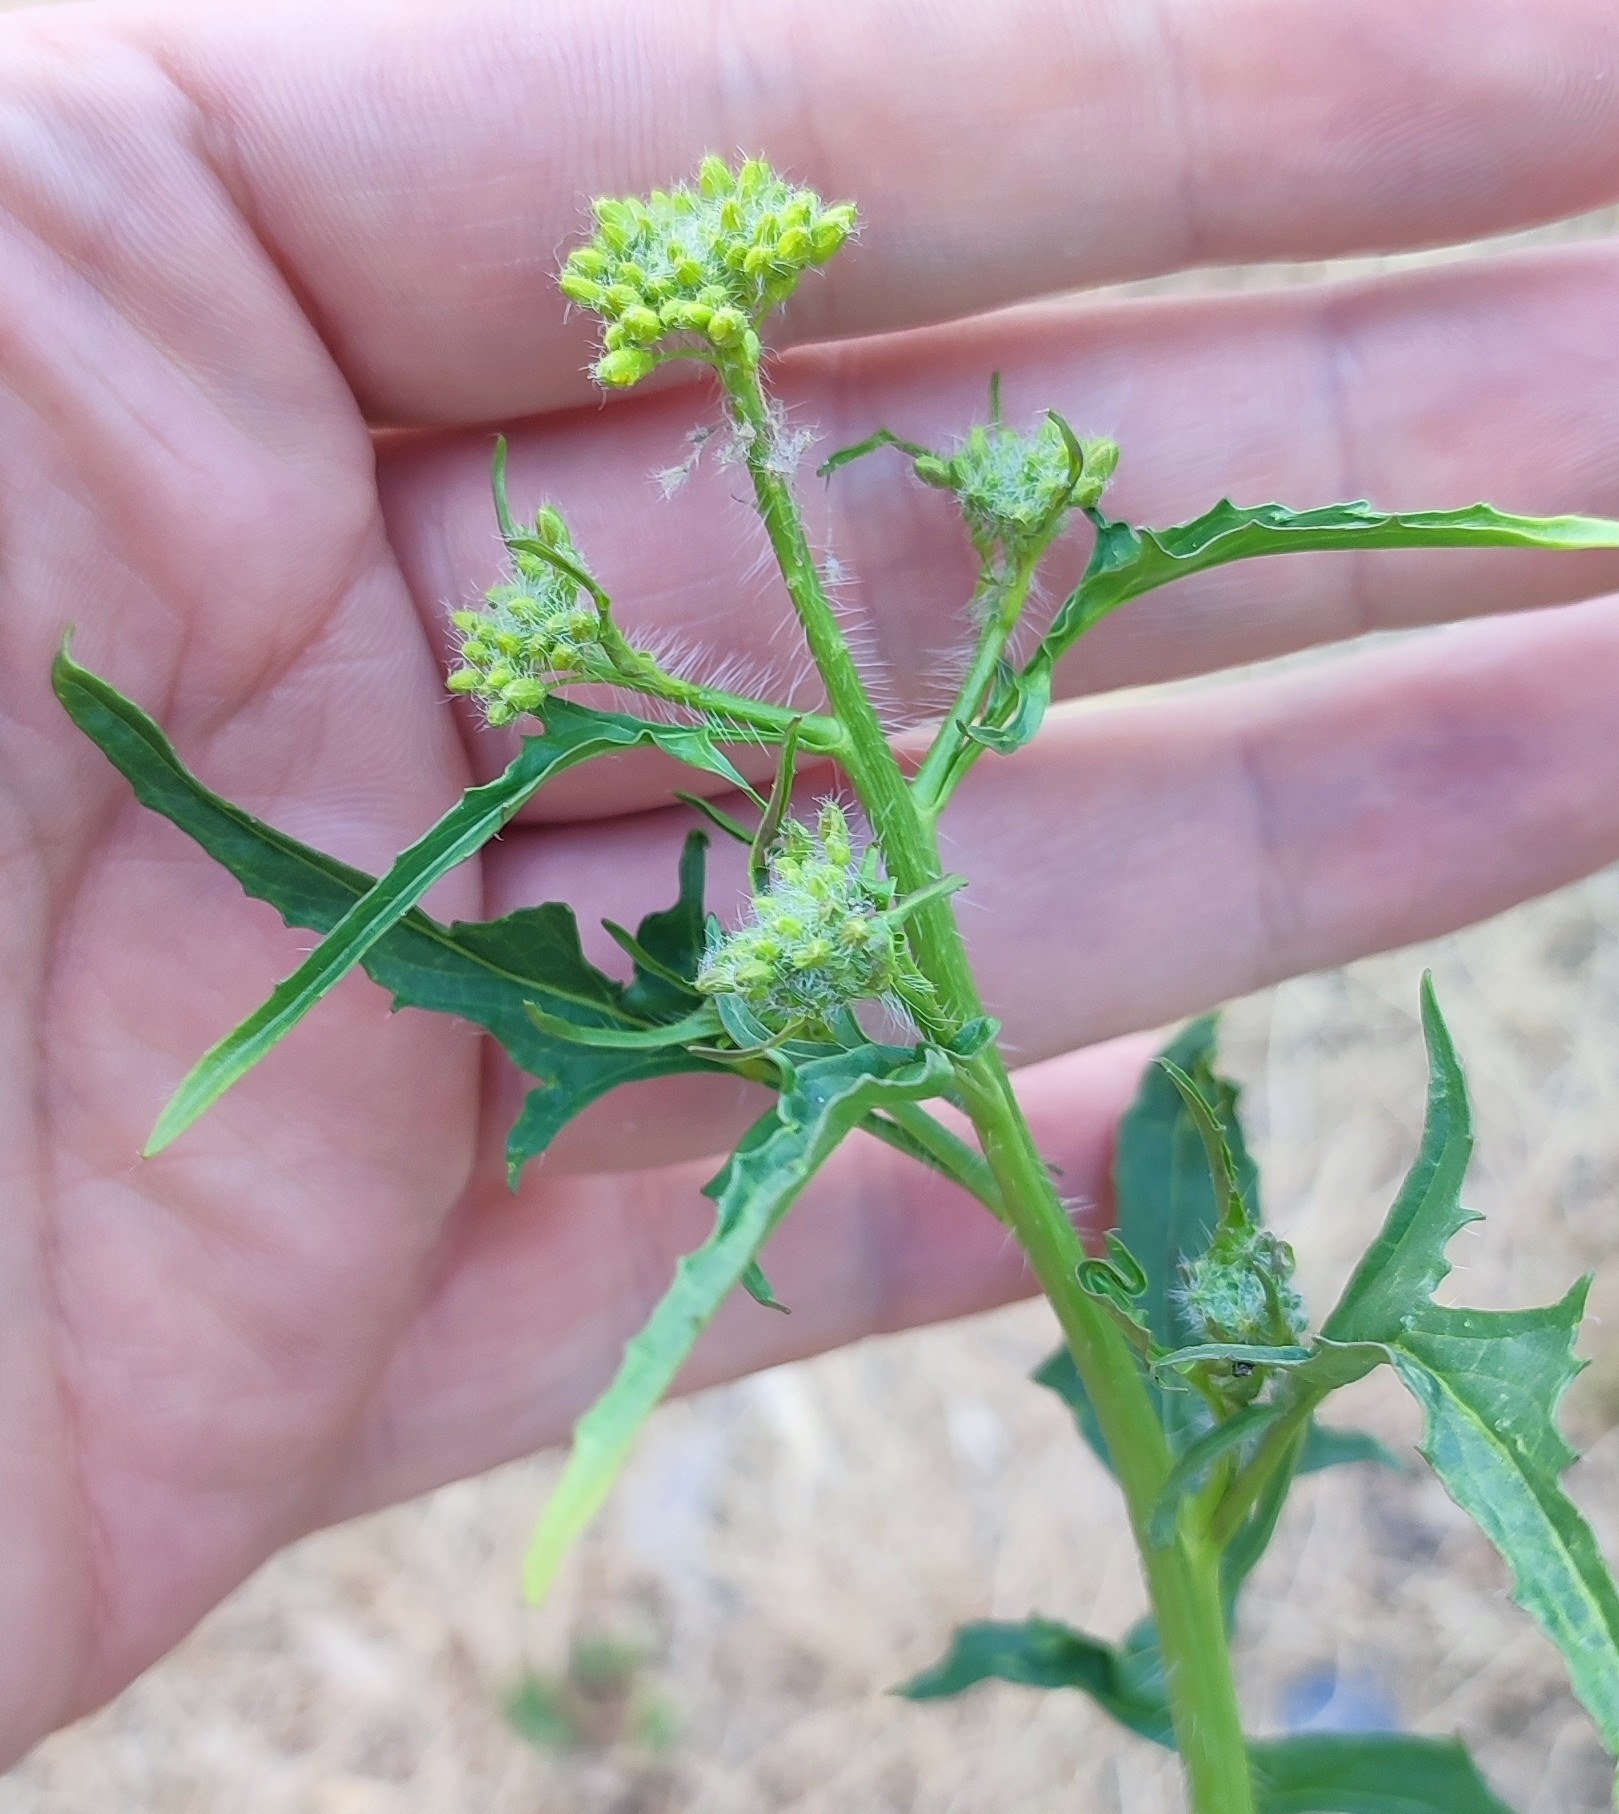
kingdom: Plantae
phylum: Tracheophyta
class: Magnoliopsida
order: Brassicales
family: Brassicaceae
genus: Sisymbrium
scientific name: Sisymbrium loeselii
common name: False london-rocket
